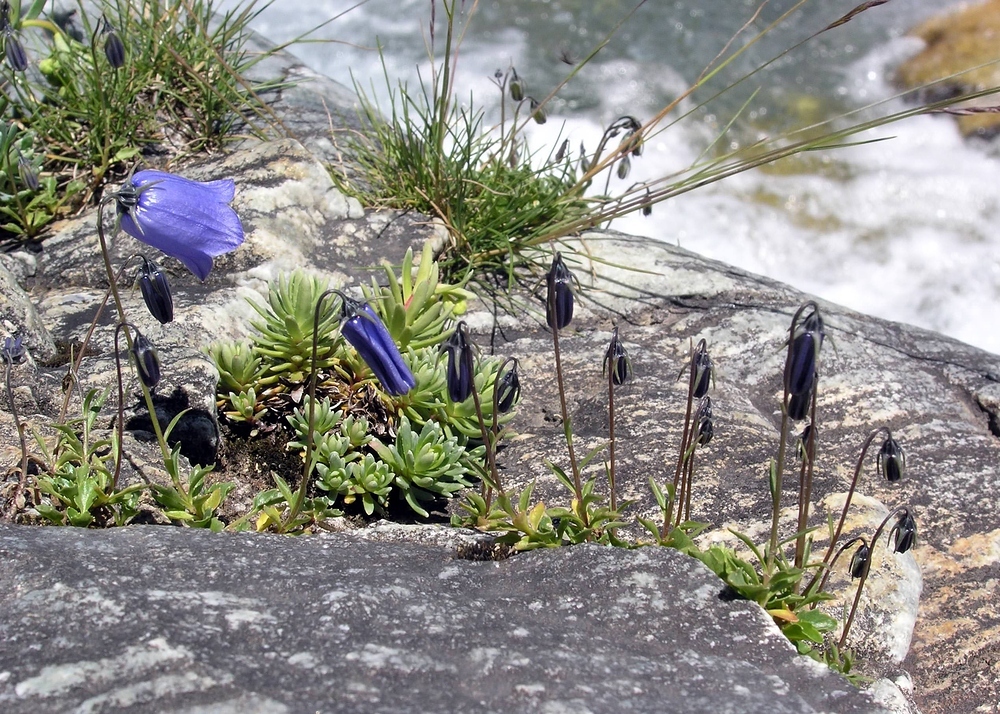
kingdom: Plantae
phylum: Tracheophyta
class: Magnoliopsida
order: Asterales
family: Campanulaceae
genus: Campanula
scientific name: Campanula cochleariifolia
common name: Fairies'-thimbles
